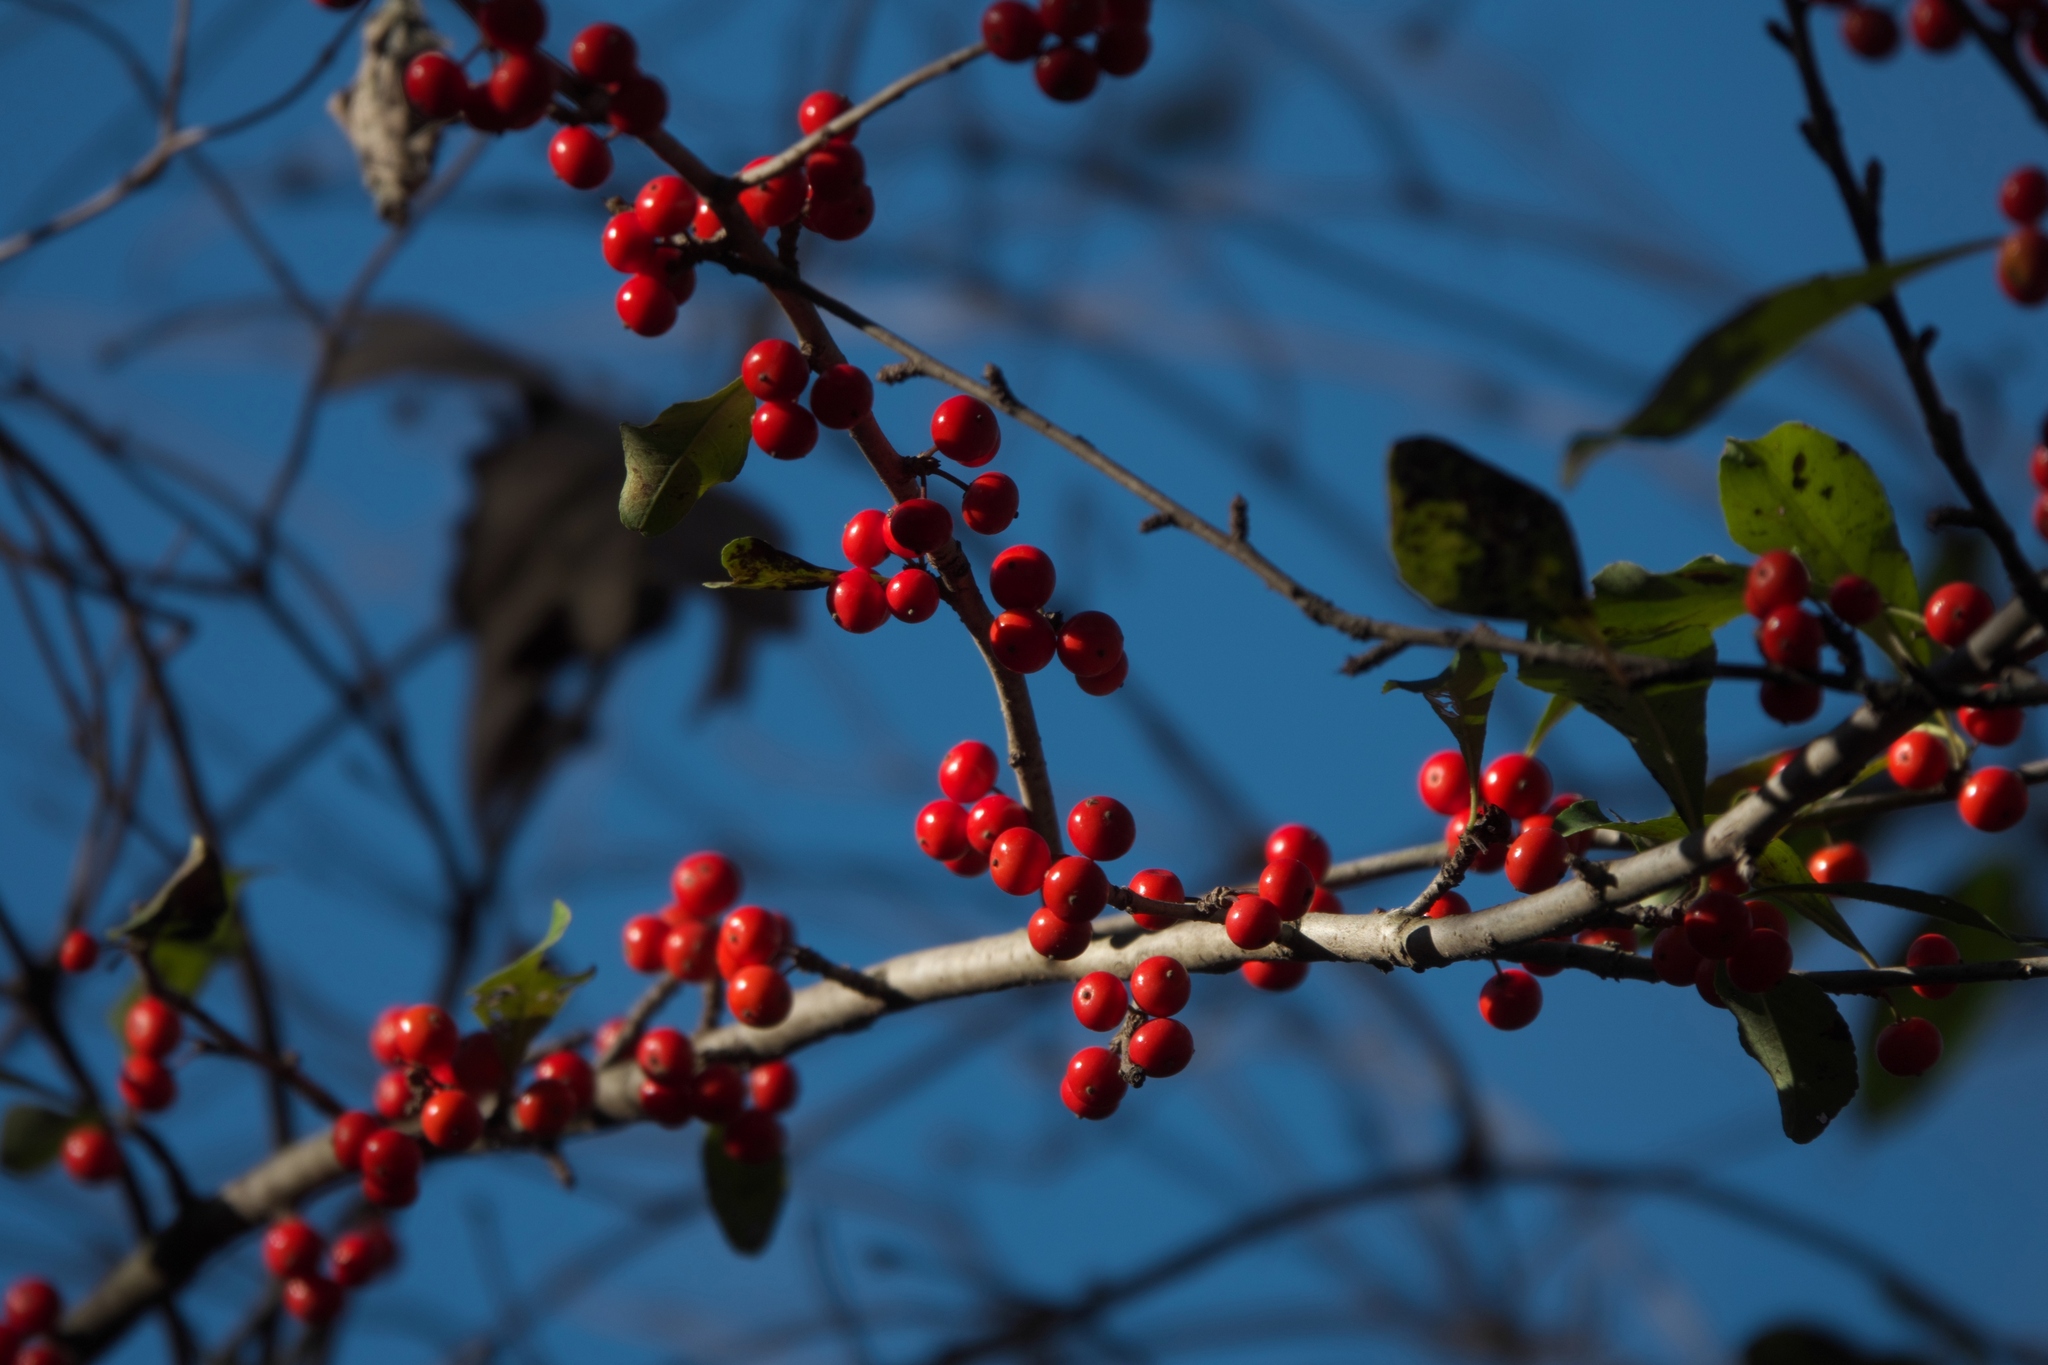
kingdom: Plantae
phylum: Tracheophyta
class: Magnoliopsida
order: Aquifoliales
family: Aquifoliaceae
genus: Ilex
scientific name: Ilex decidua
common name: Possum-haw
